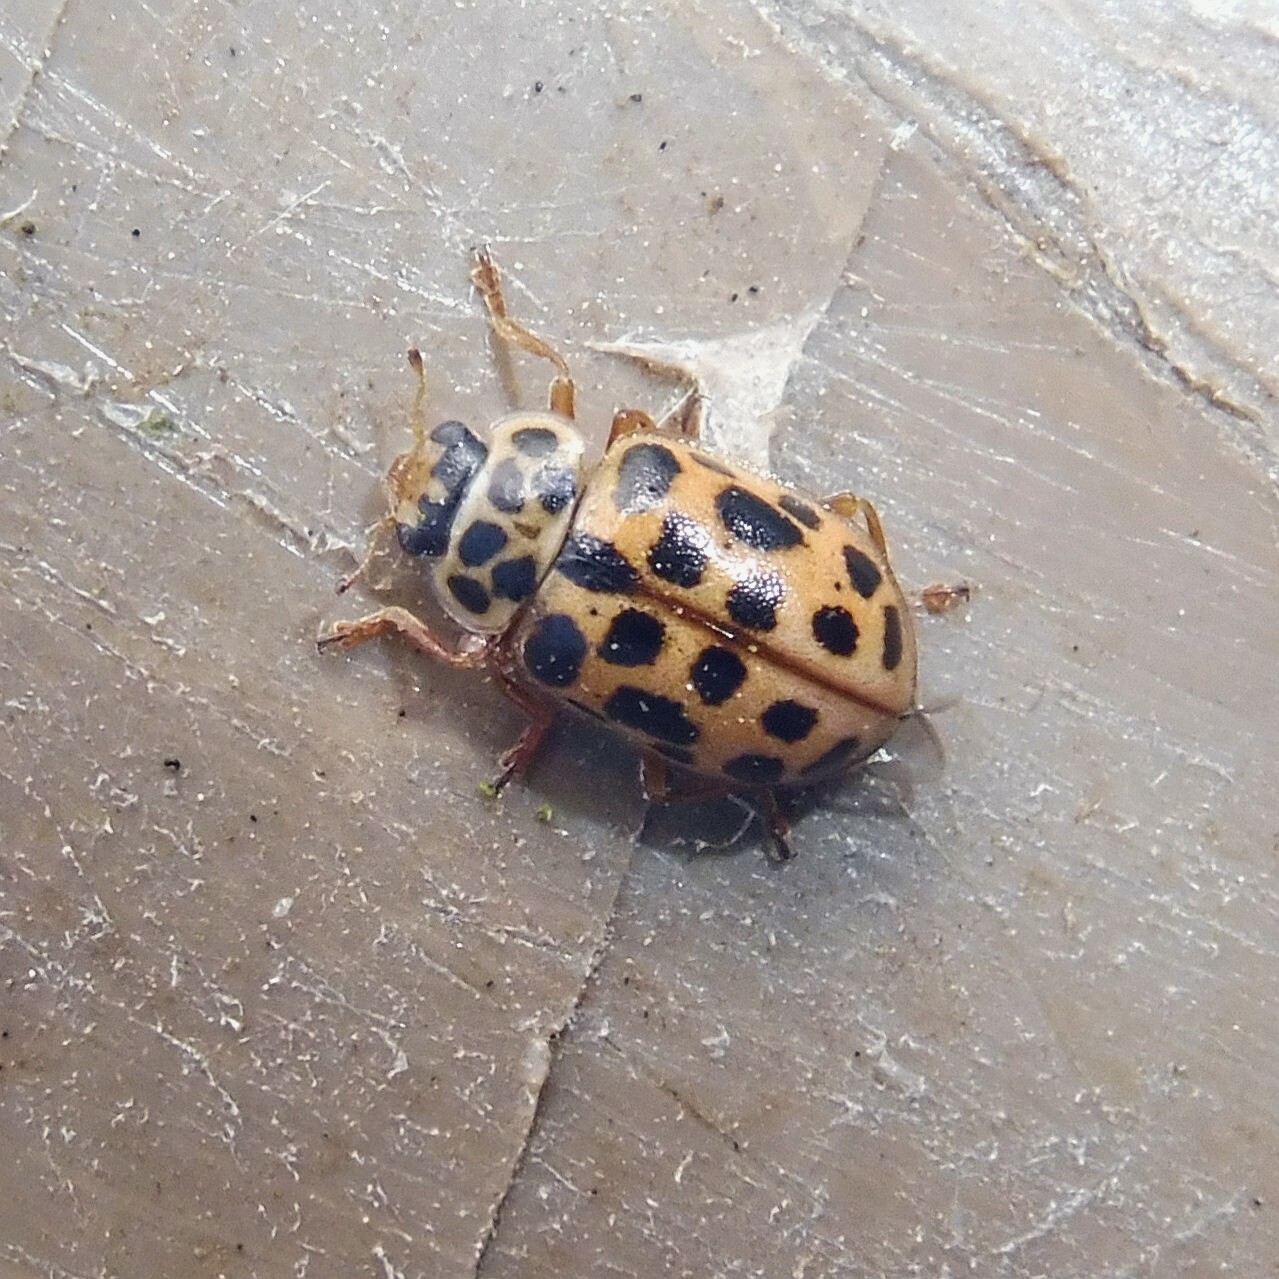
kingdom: Animalia
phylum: Arthropoda
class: Insecta
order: Coleoptera
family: Coccinellidae
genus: Anisosticta
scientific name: Anisosticta novemdecimpunctata
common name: Water ladybird
